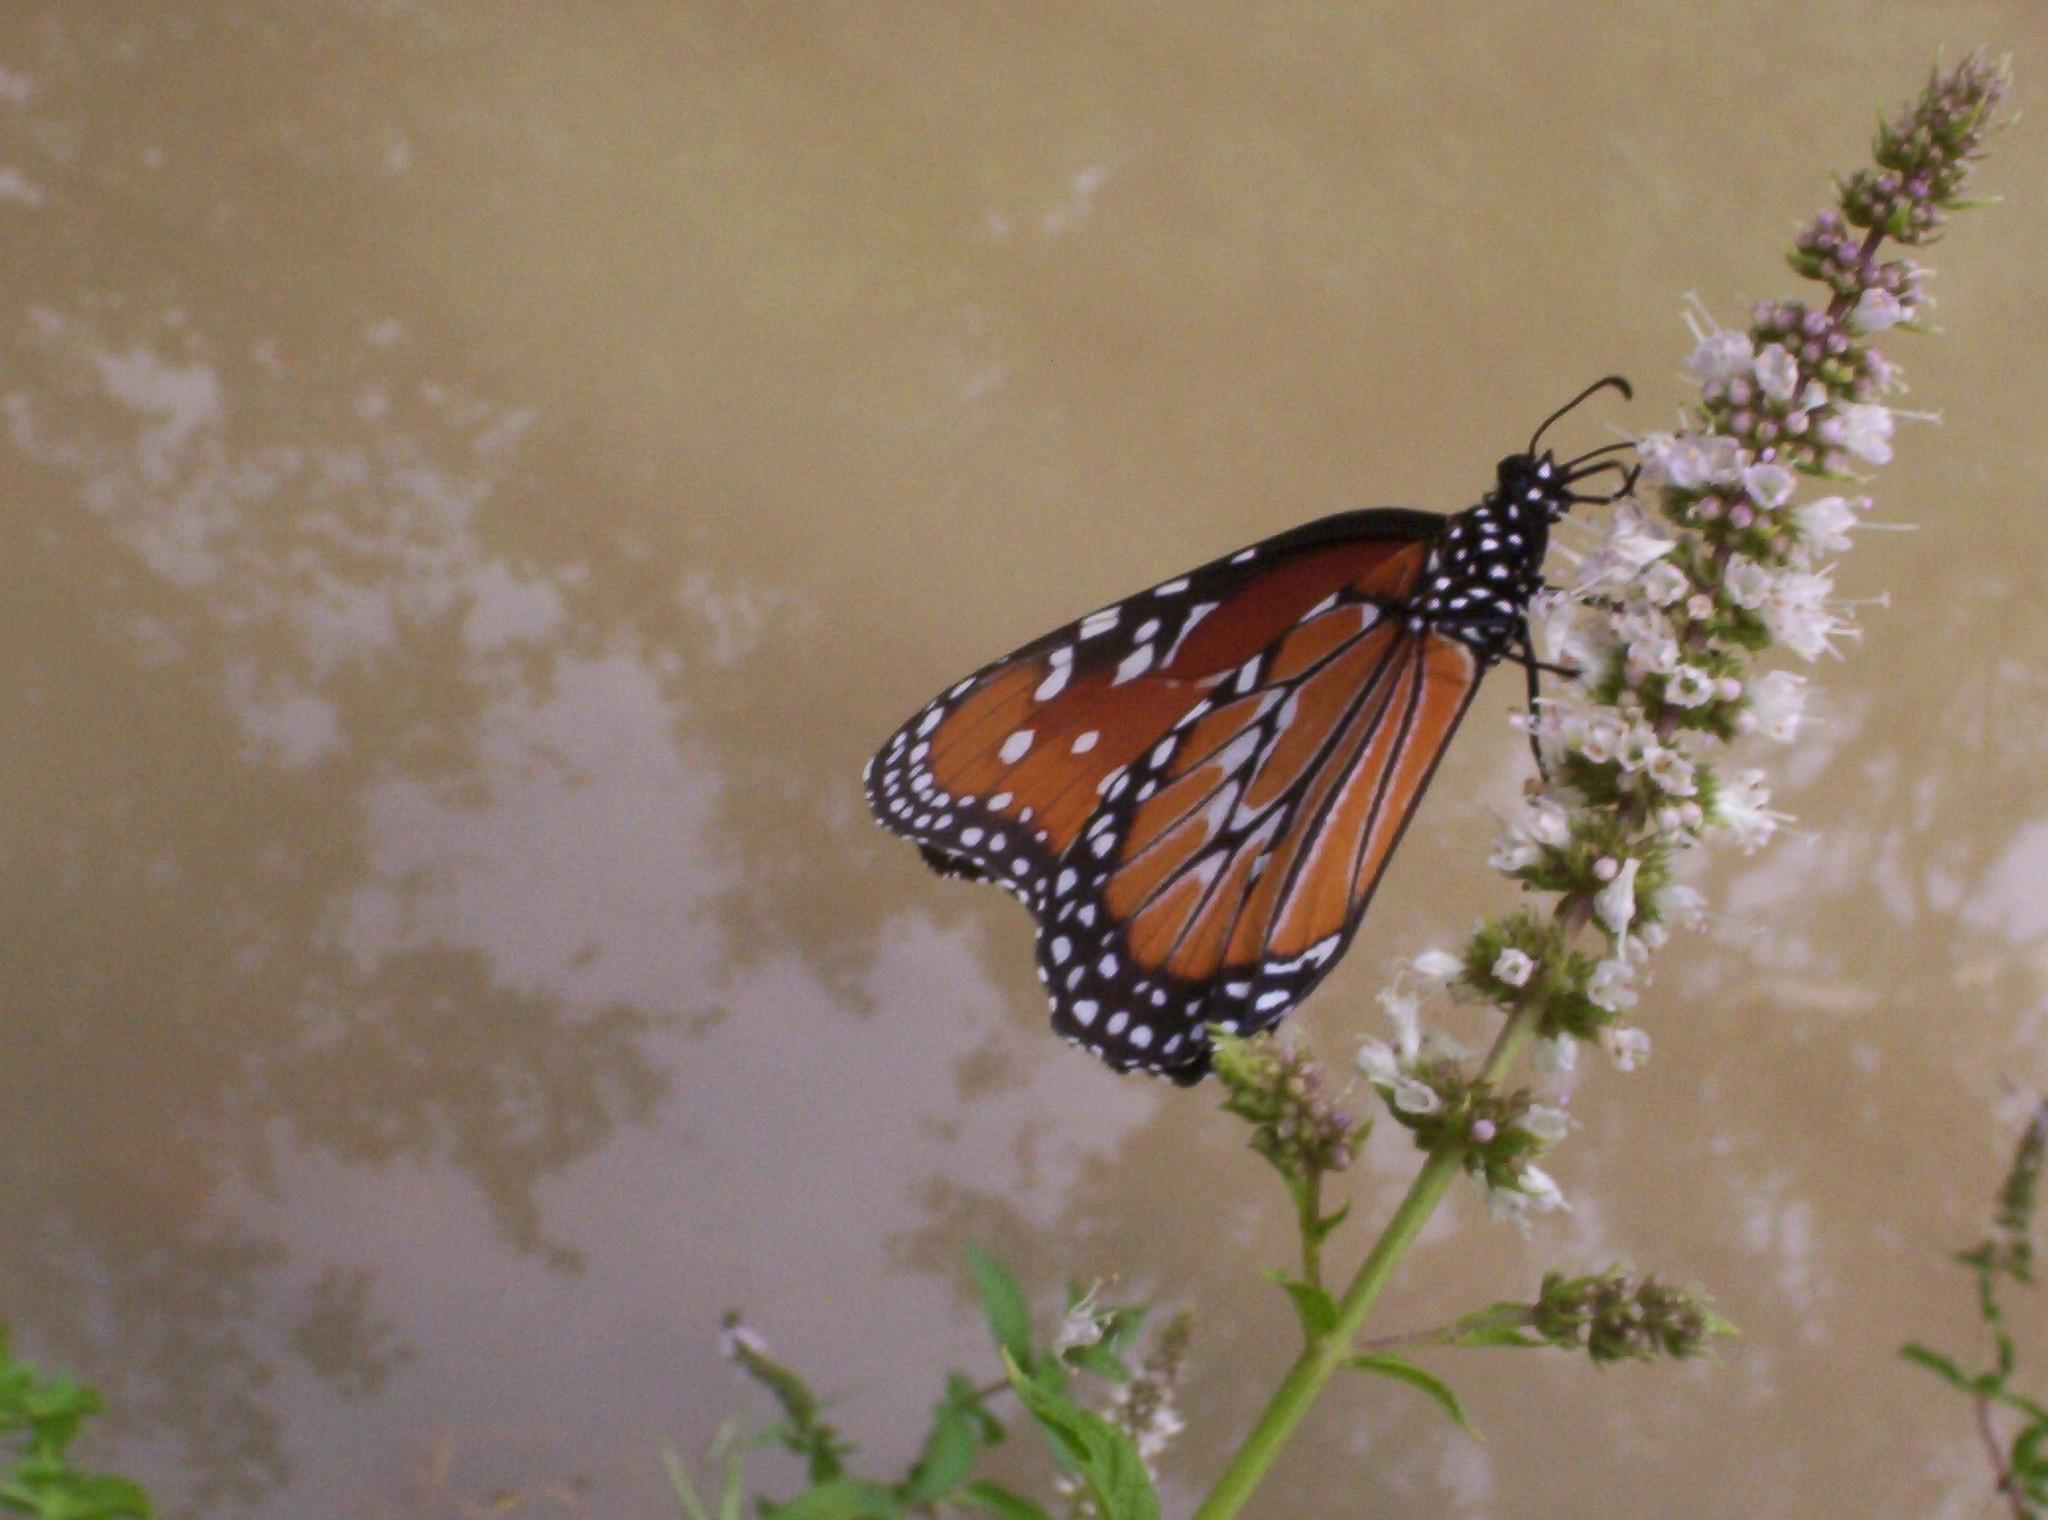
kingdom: Animalia
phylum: Arthropoda
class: Insecta
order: Lepidoptera
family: Nymphalidae
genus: Danaus
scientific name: Danaus gilippus
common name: Queen
